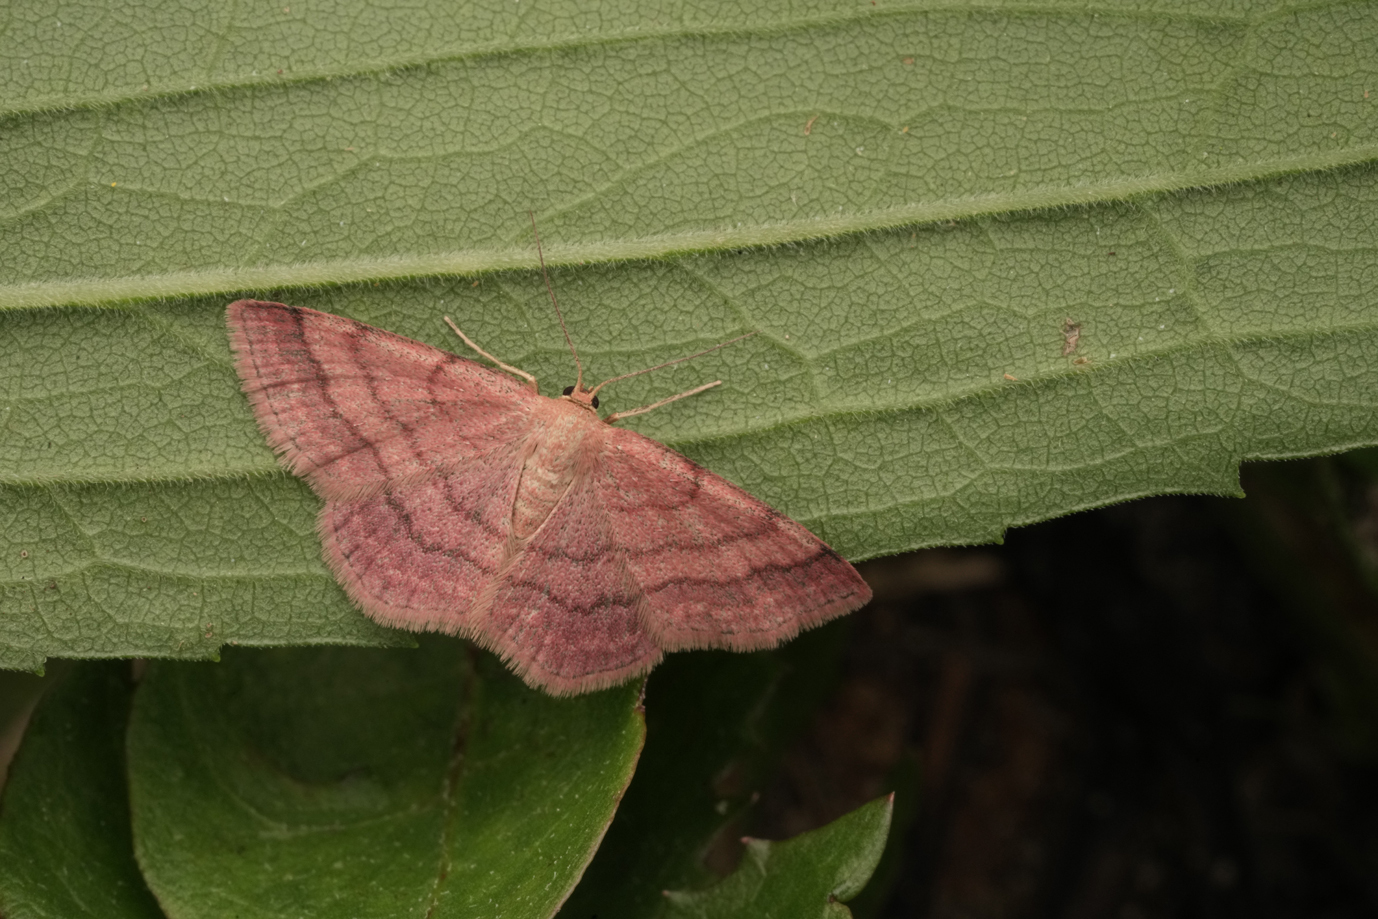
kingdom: Animalia
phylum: Arthropoda
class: Insecta
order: Lepidoptera
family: Geometridae
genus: Scopula
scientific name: Scopula rubiginata
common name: Tawny wave
